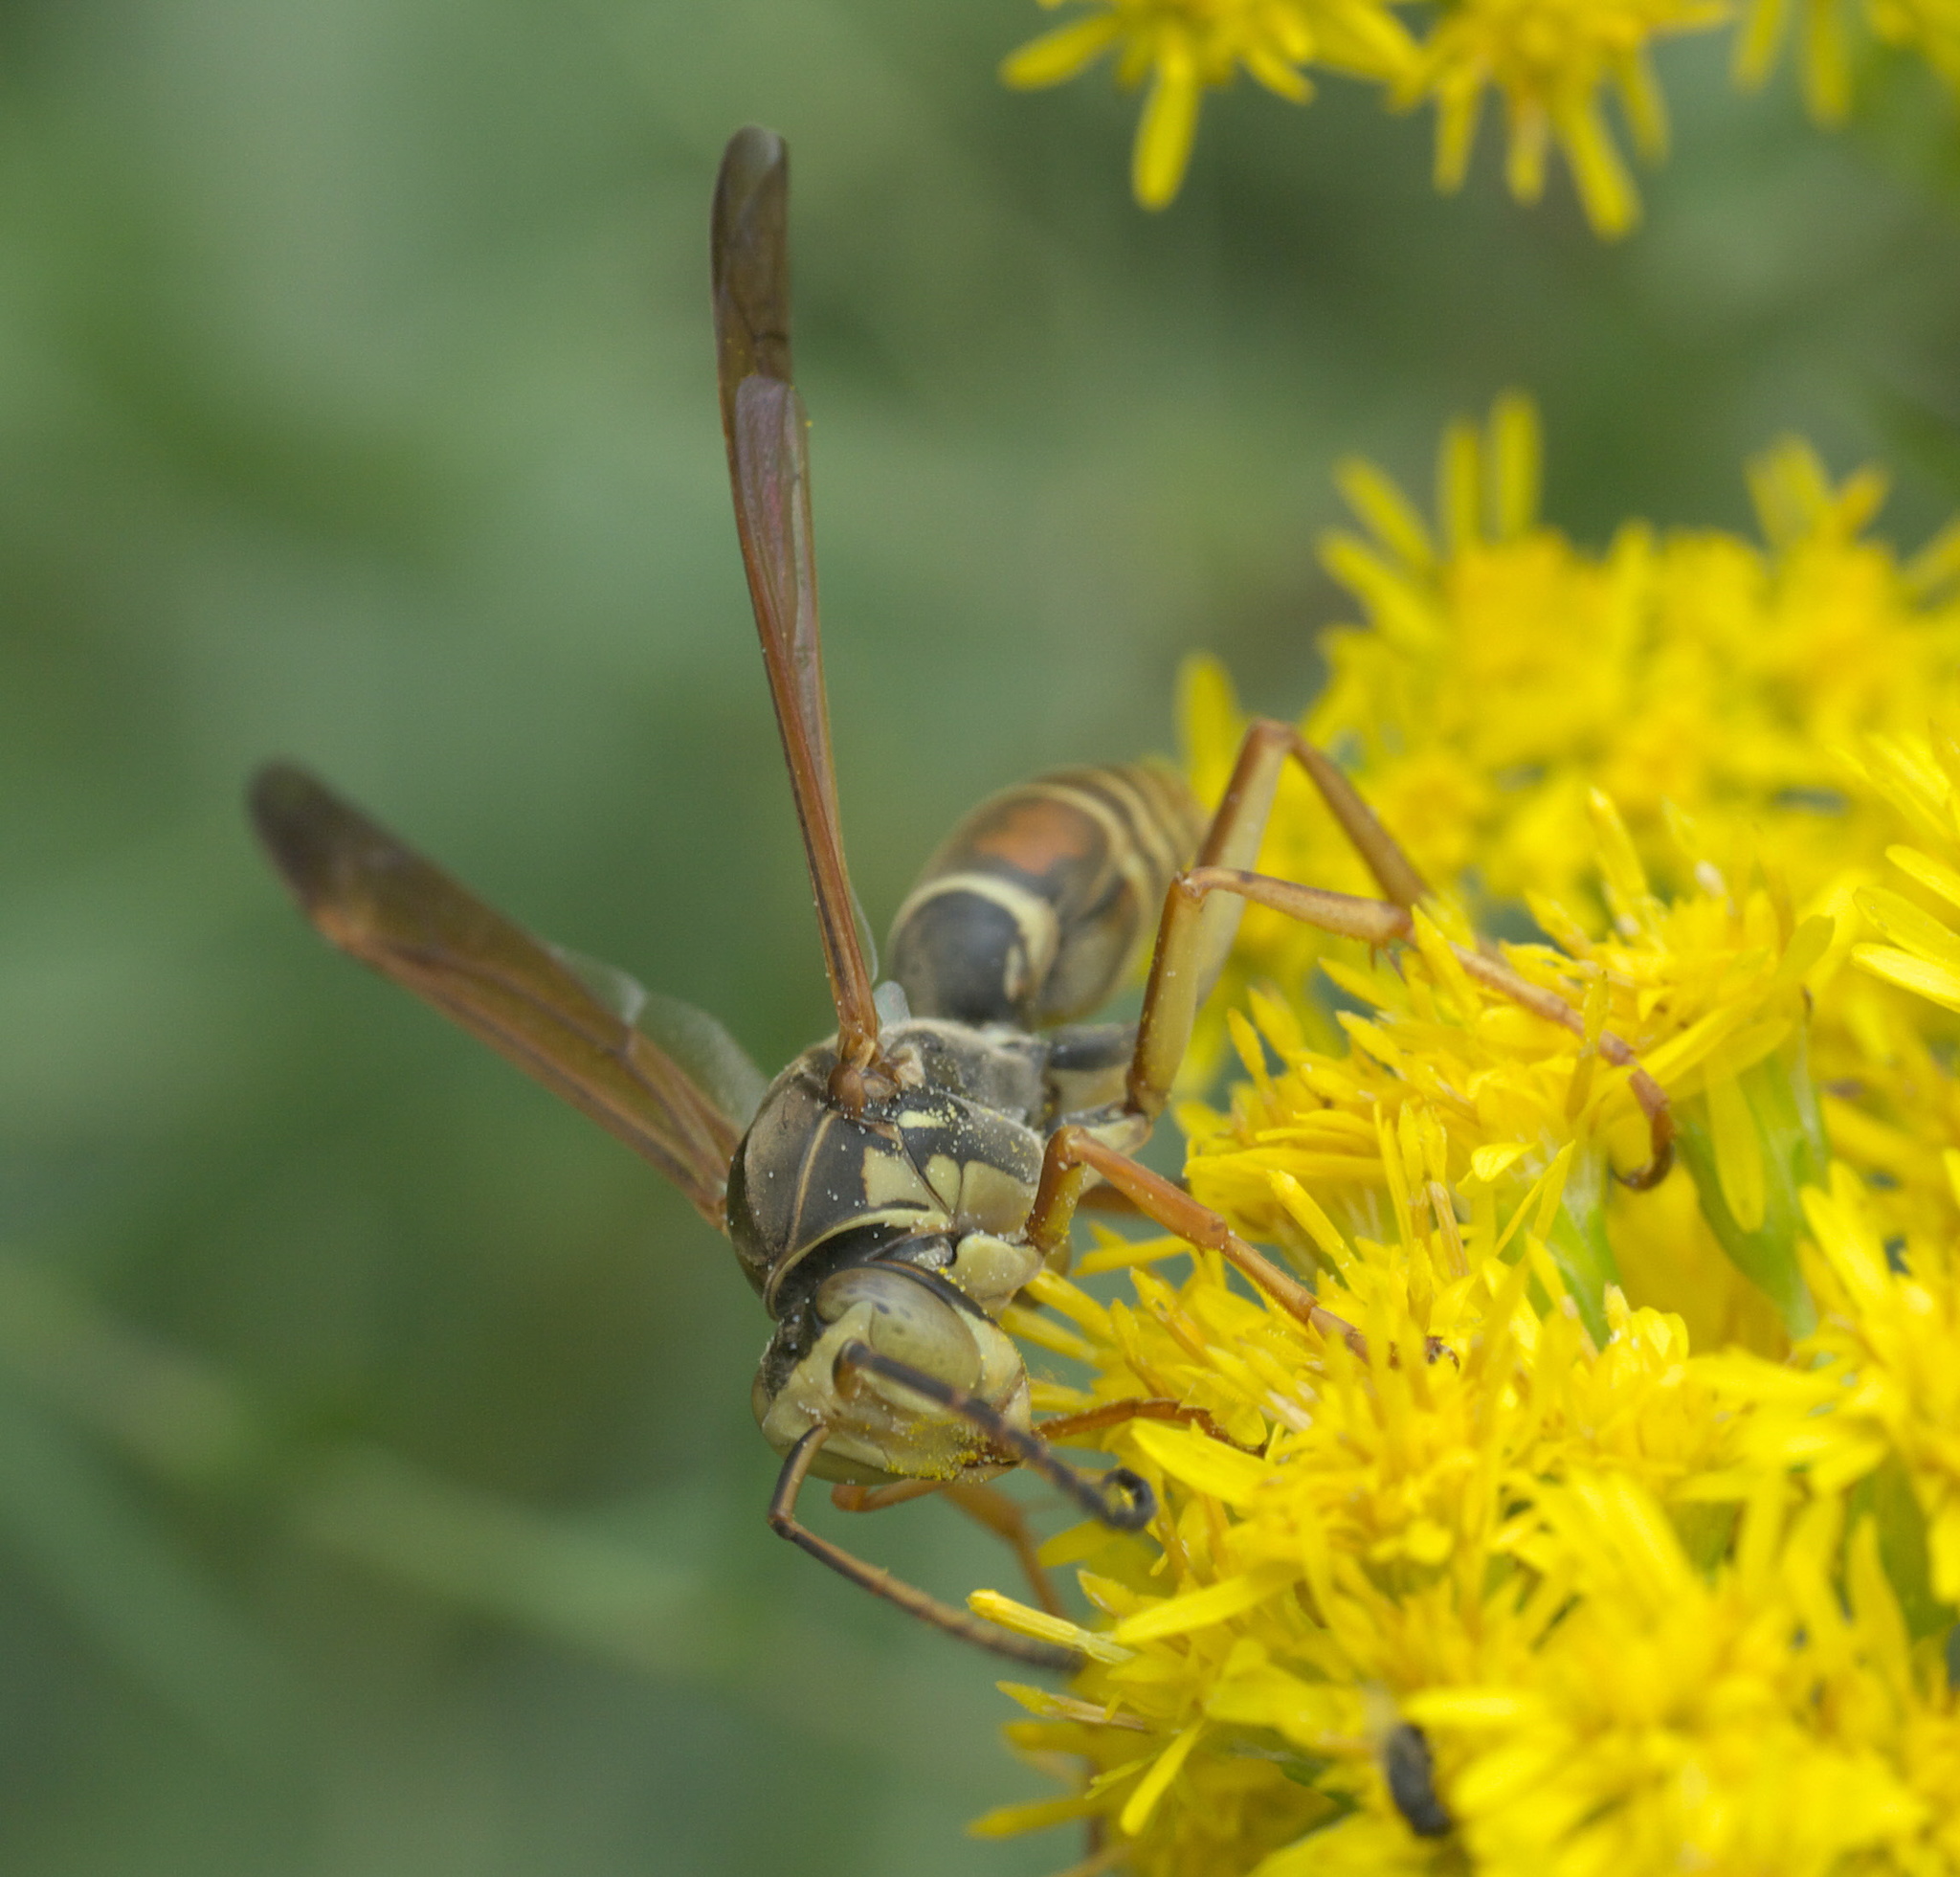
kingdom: Animalia
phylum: Arthropoda
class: Insecta
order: Hymenoptera
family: Eumenidae
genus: Polistes
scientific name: Polistes fuscatus
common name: Dark paper wasp
